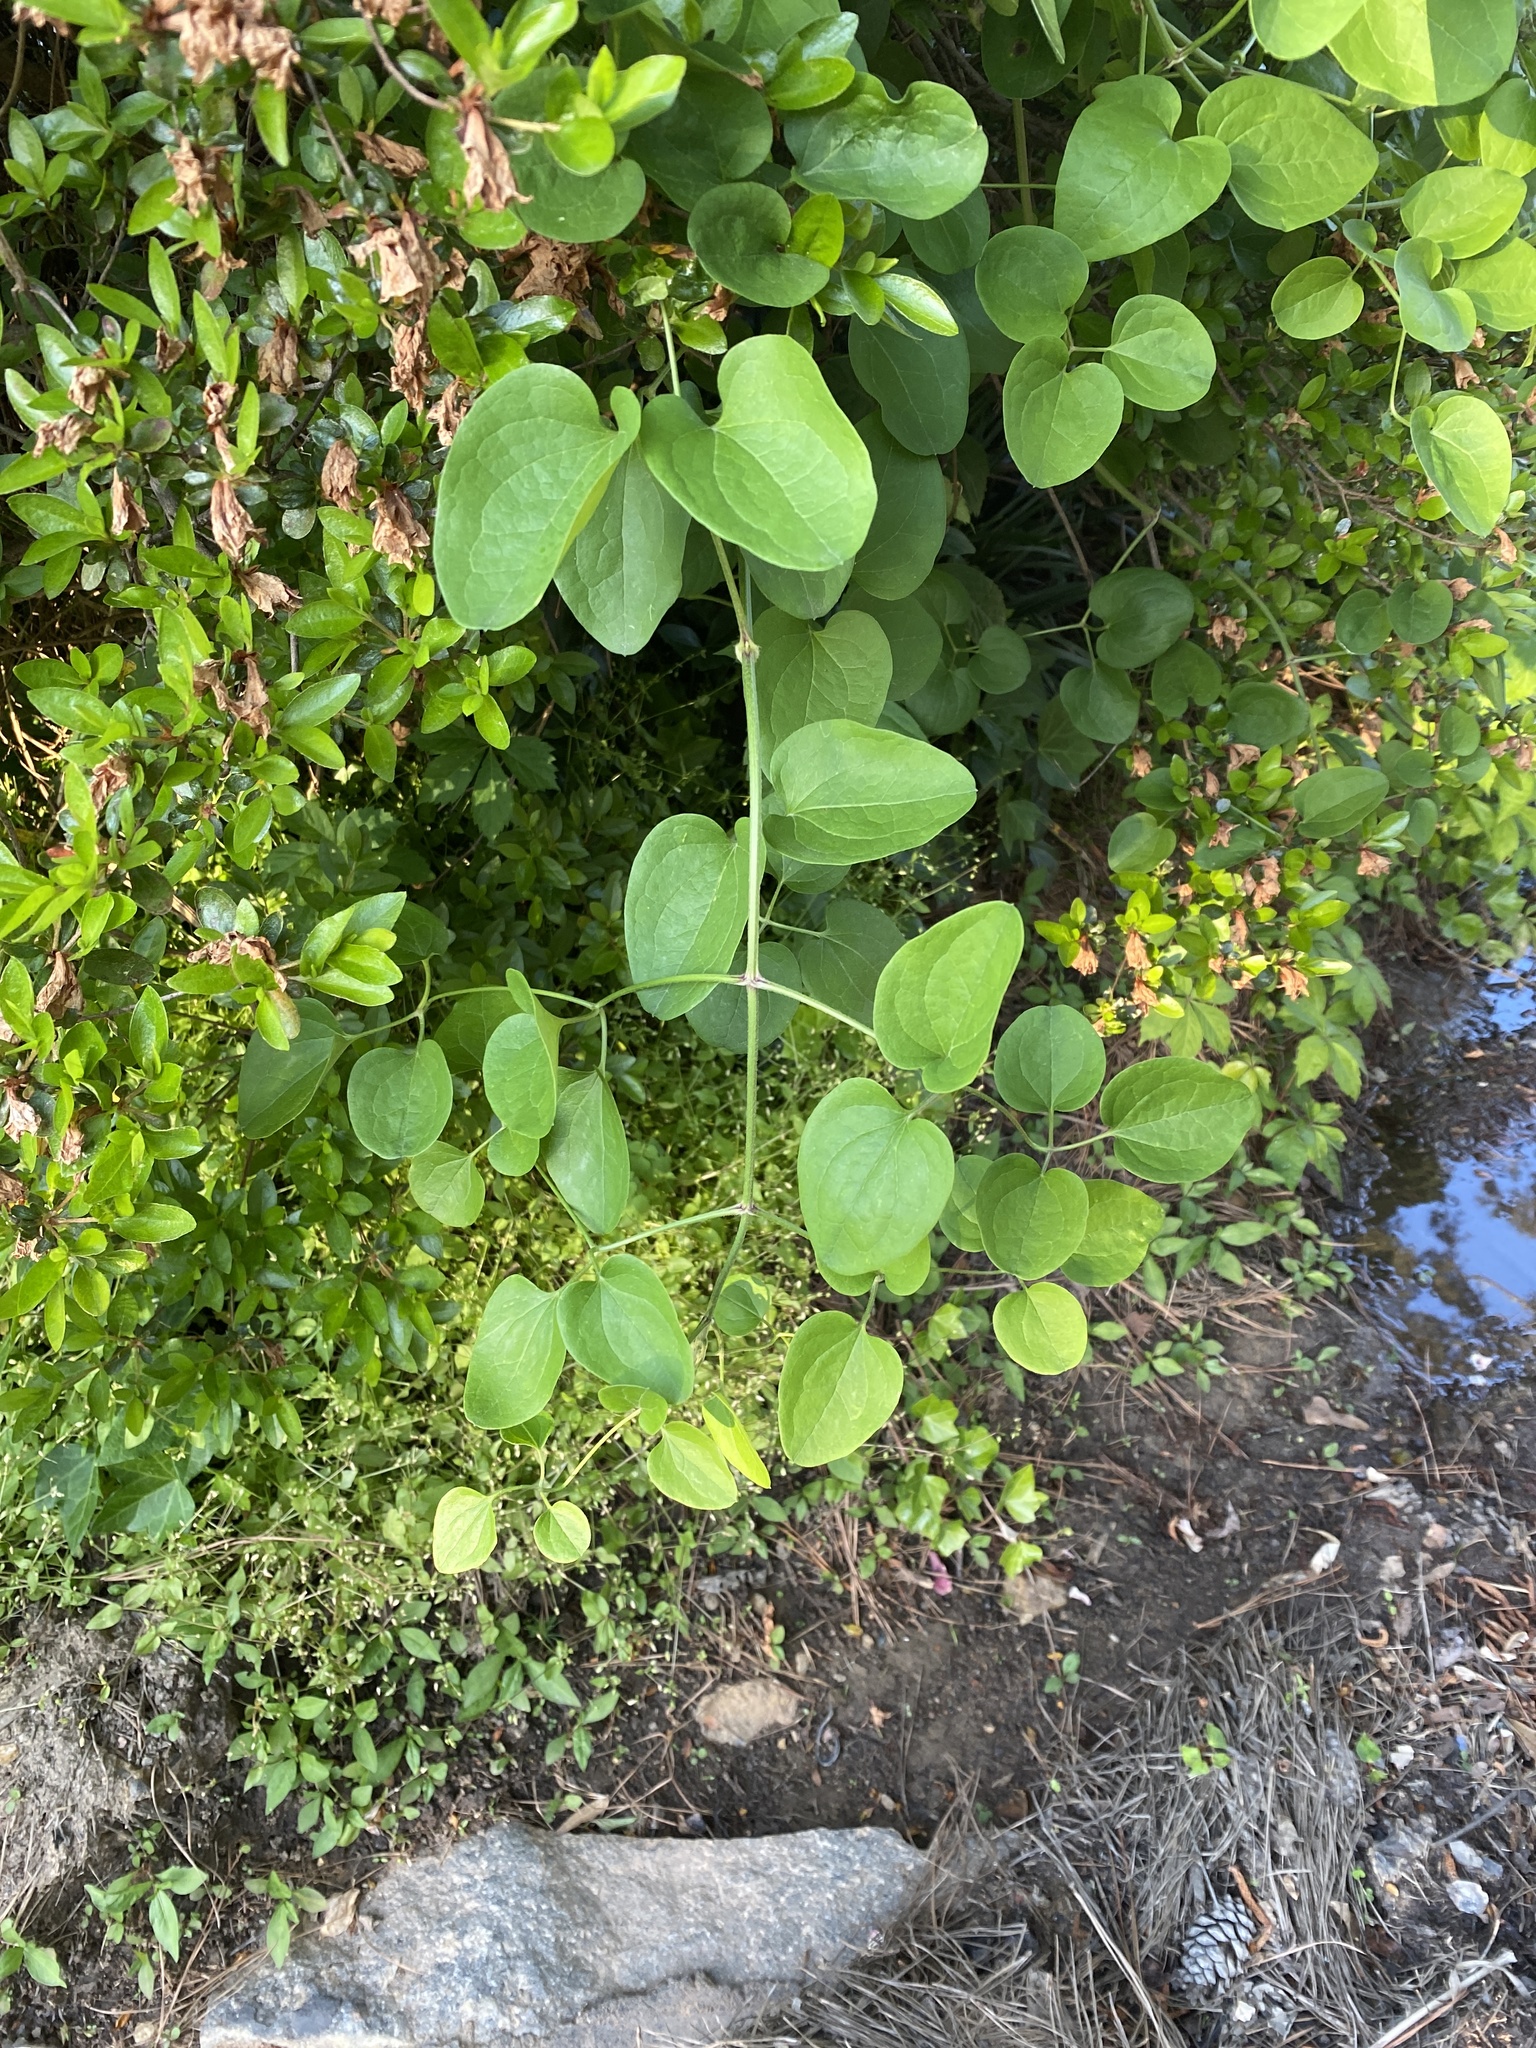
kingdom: Plantae
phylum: Tracheophyta
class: Magnoliopsida
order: Ranunculales
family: Ranunculaceae
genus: Clematis
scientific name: Clematis terniflora
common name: Sweet autumn clematis
